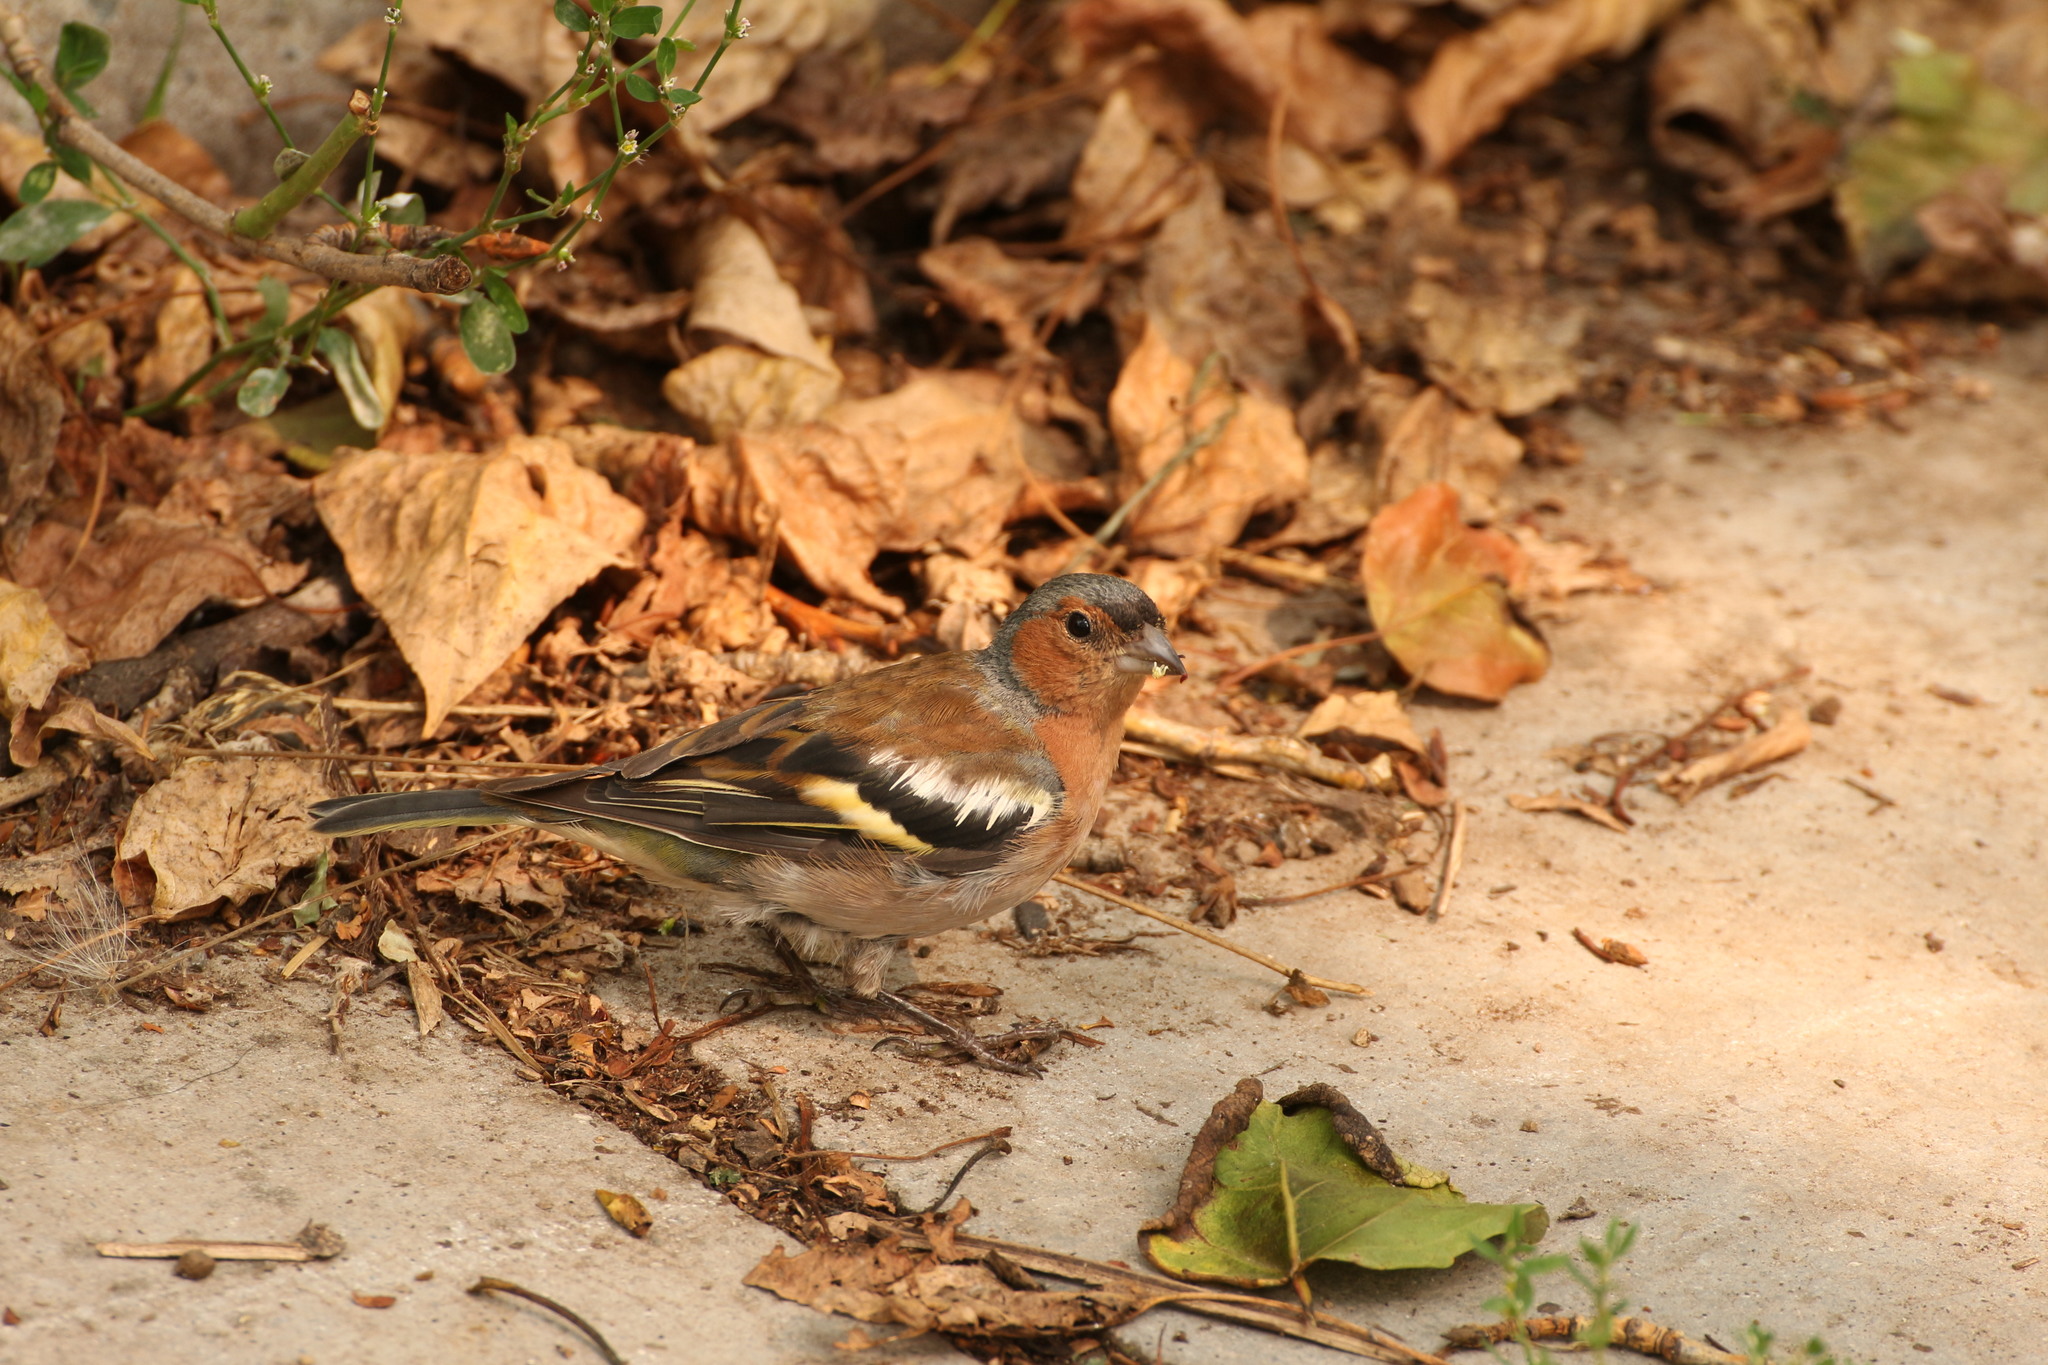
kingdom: Animalia
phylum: Chordata
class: Aves
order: Passeriformes
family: Fringillidae
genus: Fringilla
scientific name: Fringilla coelebs
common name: Common chaffinch
